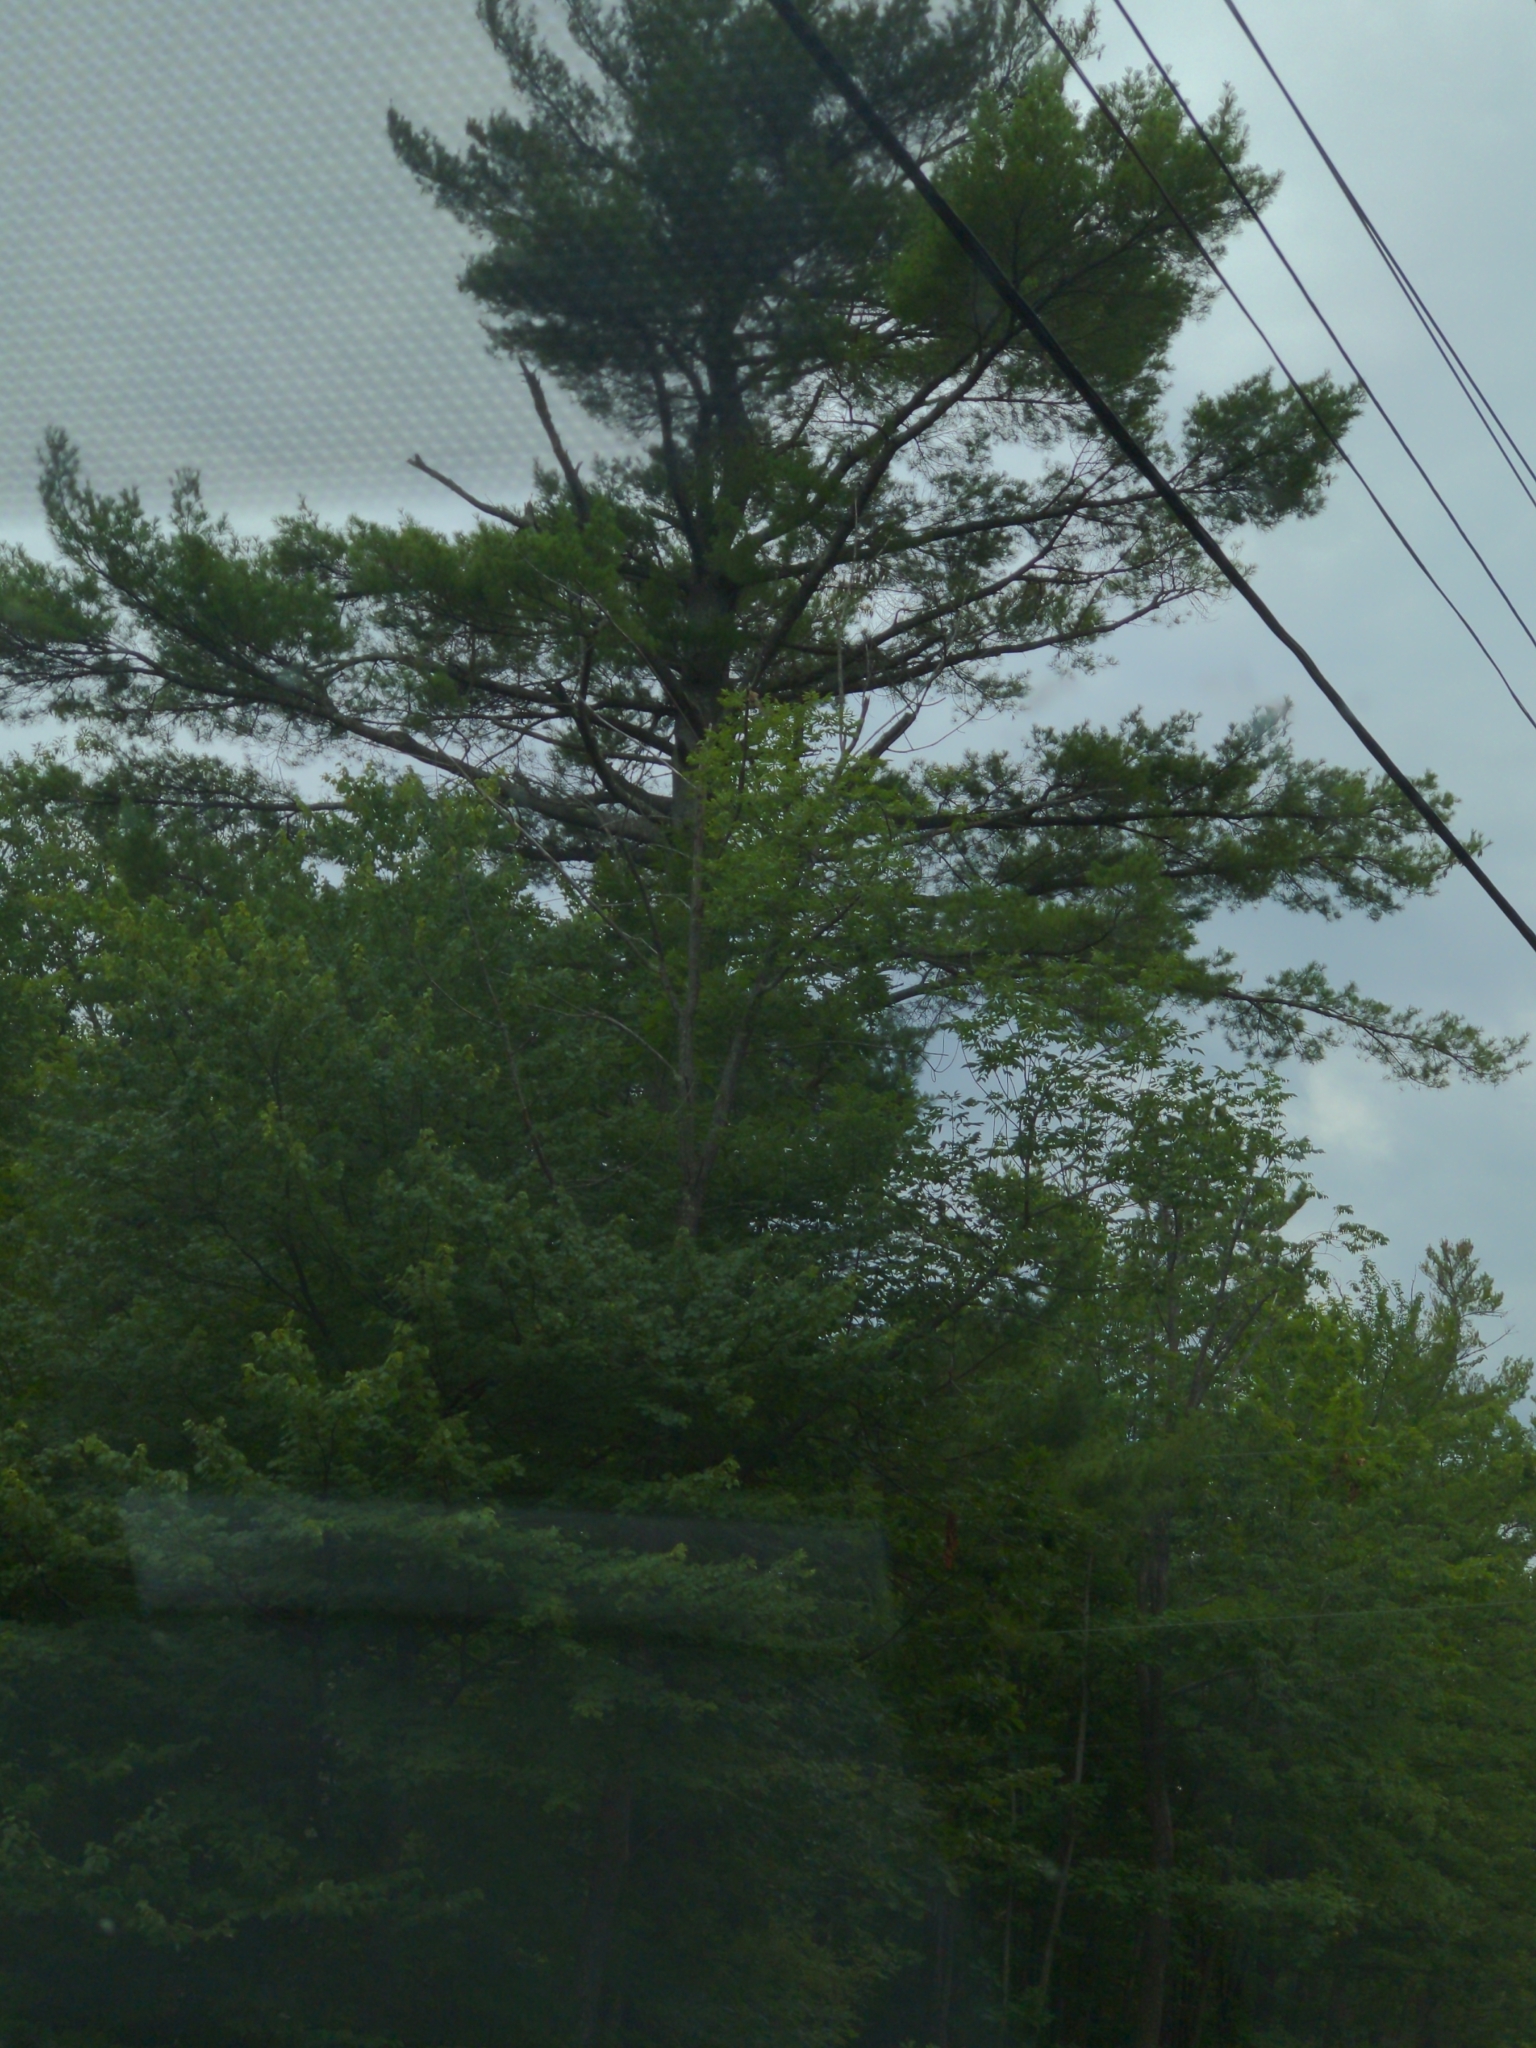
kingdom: Plantae
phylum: Tracheophyta
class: Pinopsida
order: Pinales
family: Pinaceae
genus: Pinus
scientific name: Pinus strobus
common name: Weymouth pine
